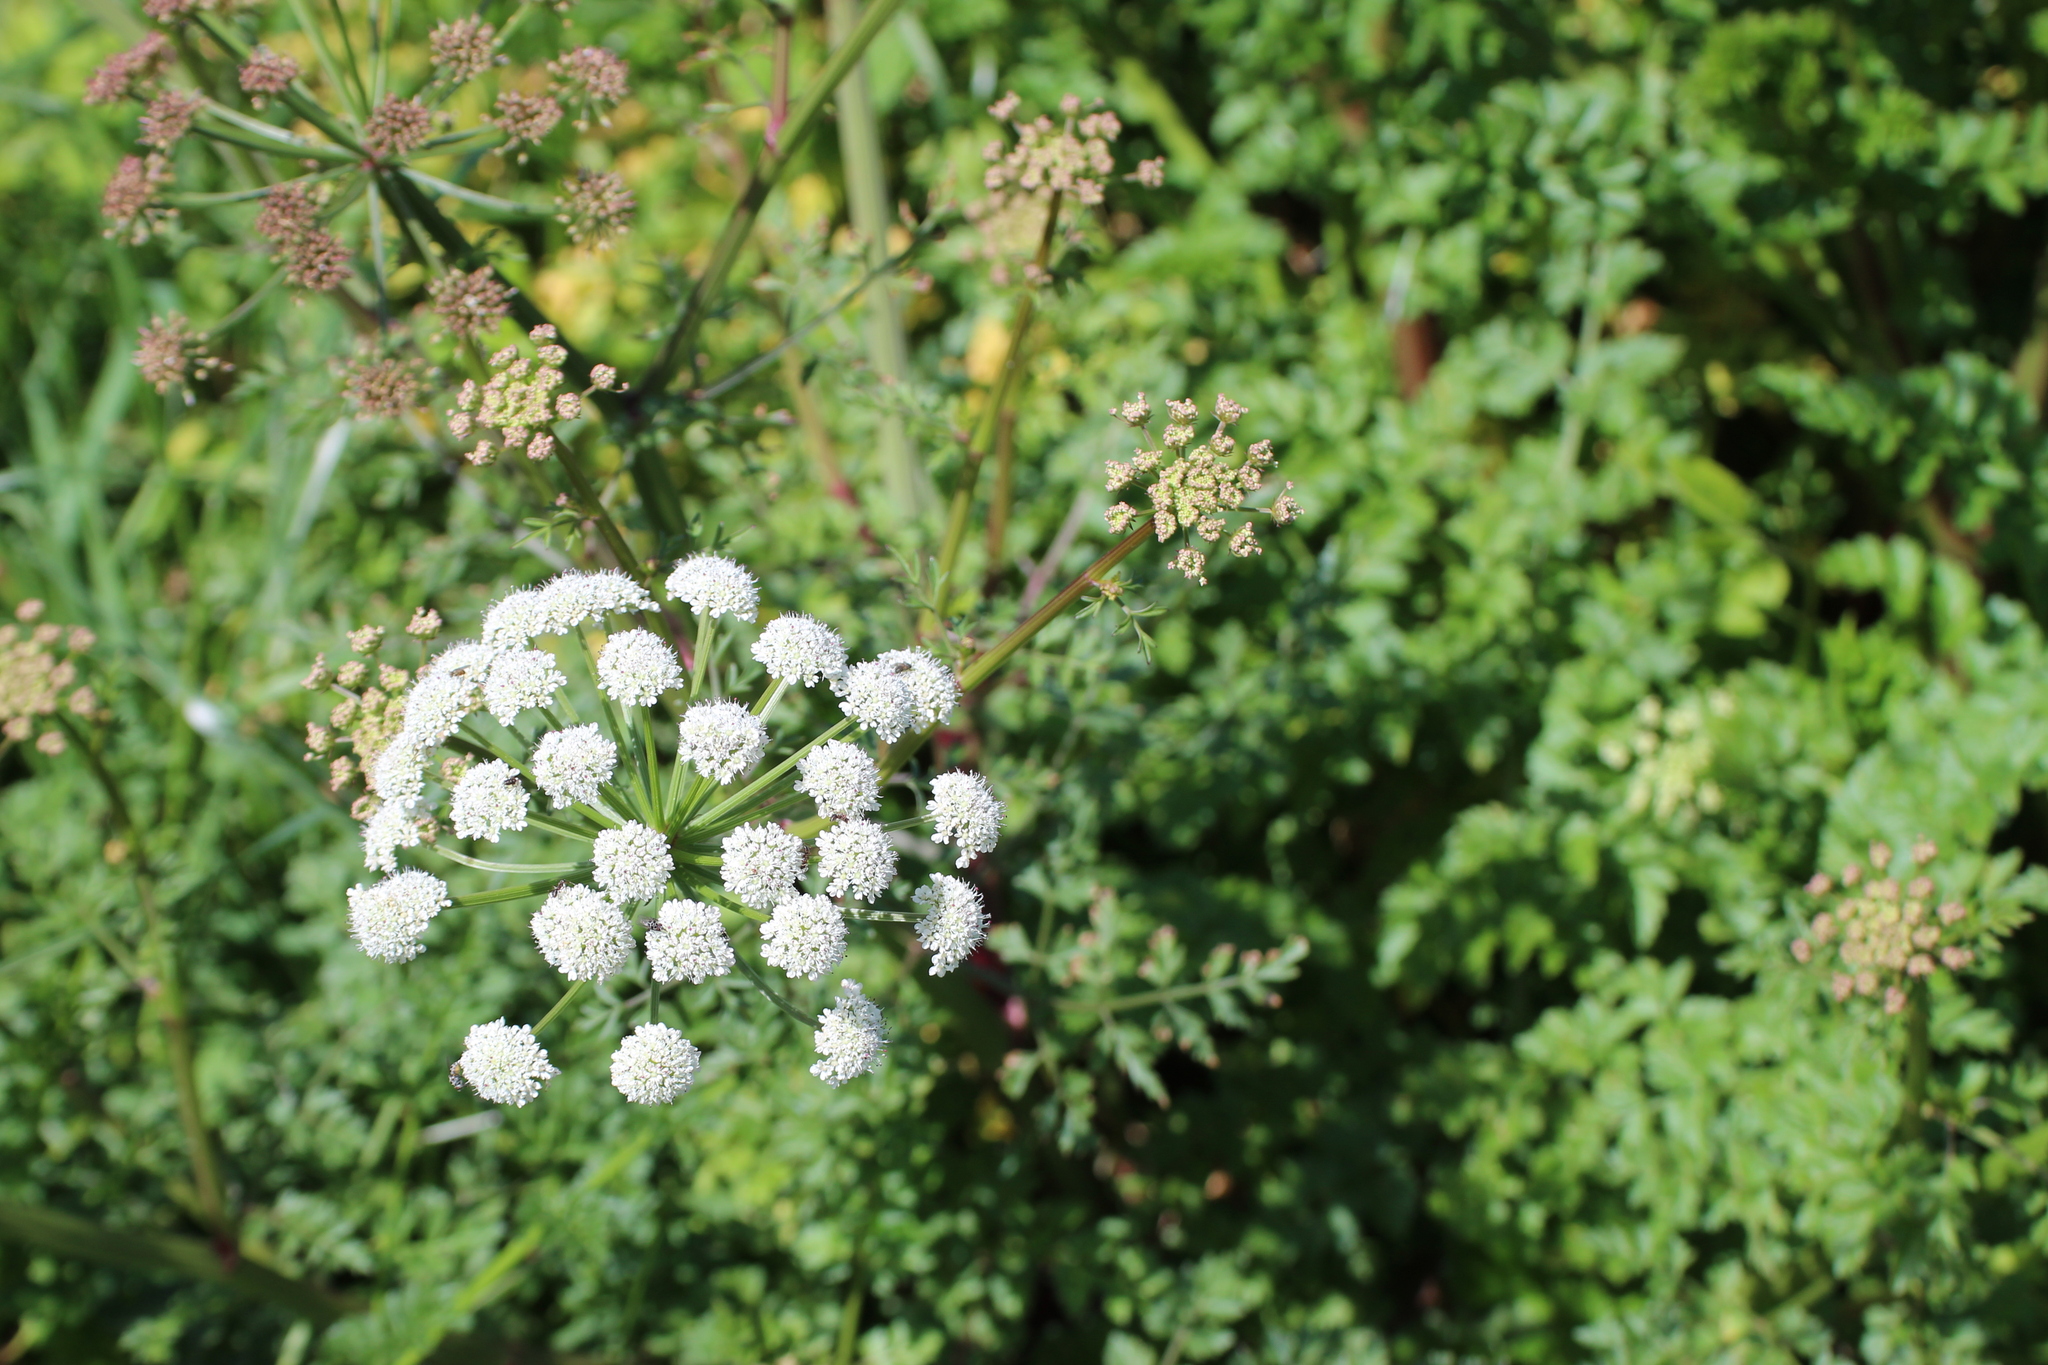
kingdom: Plantae
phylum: Tracheophyta
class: Magnoliopsida
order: Apiales
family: Apiaceae
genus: Oenanthe
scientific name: Oenanthe crocata
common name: Hemlock water-dropwort
